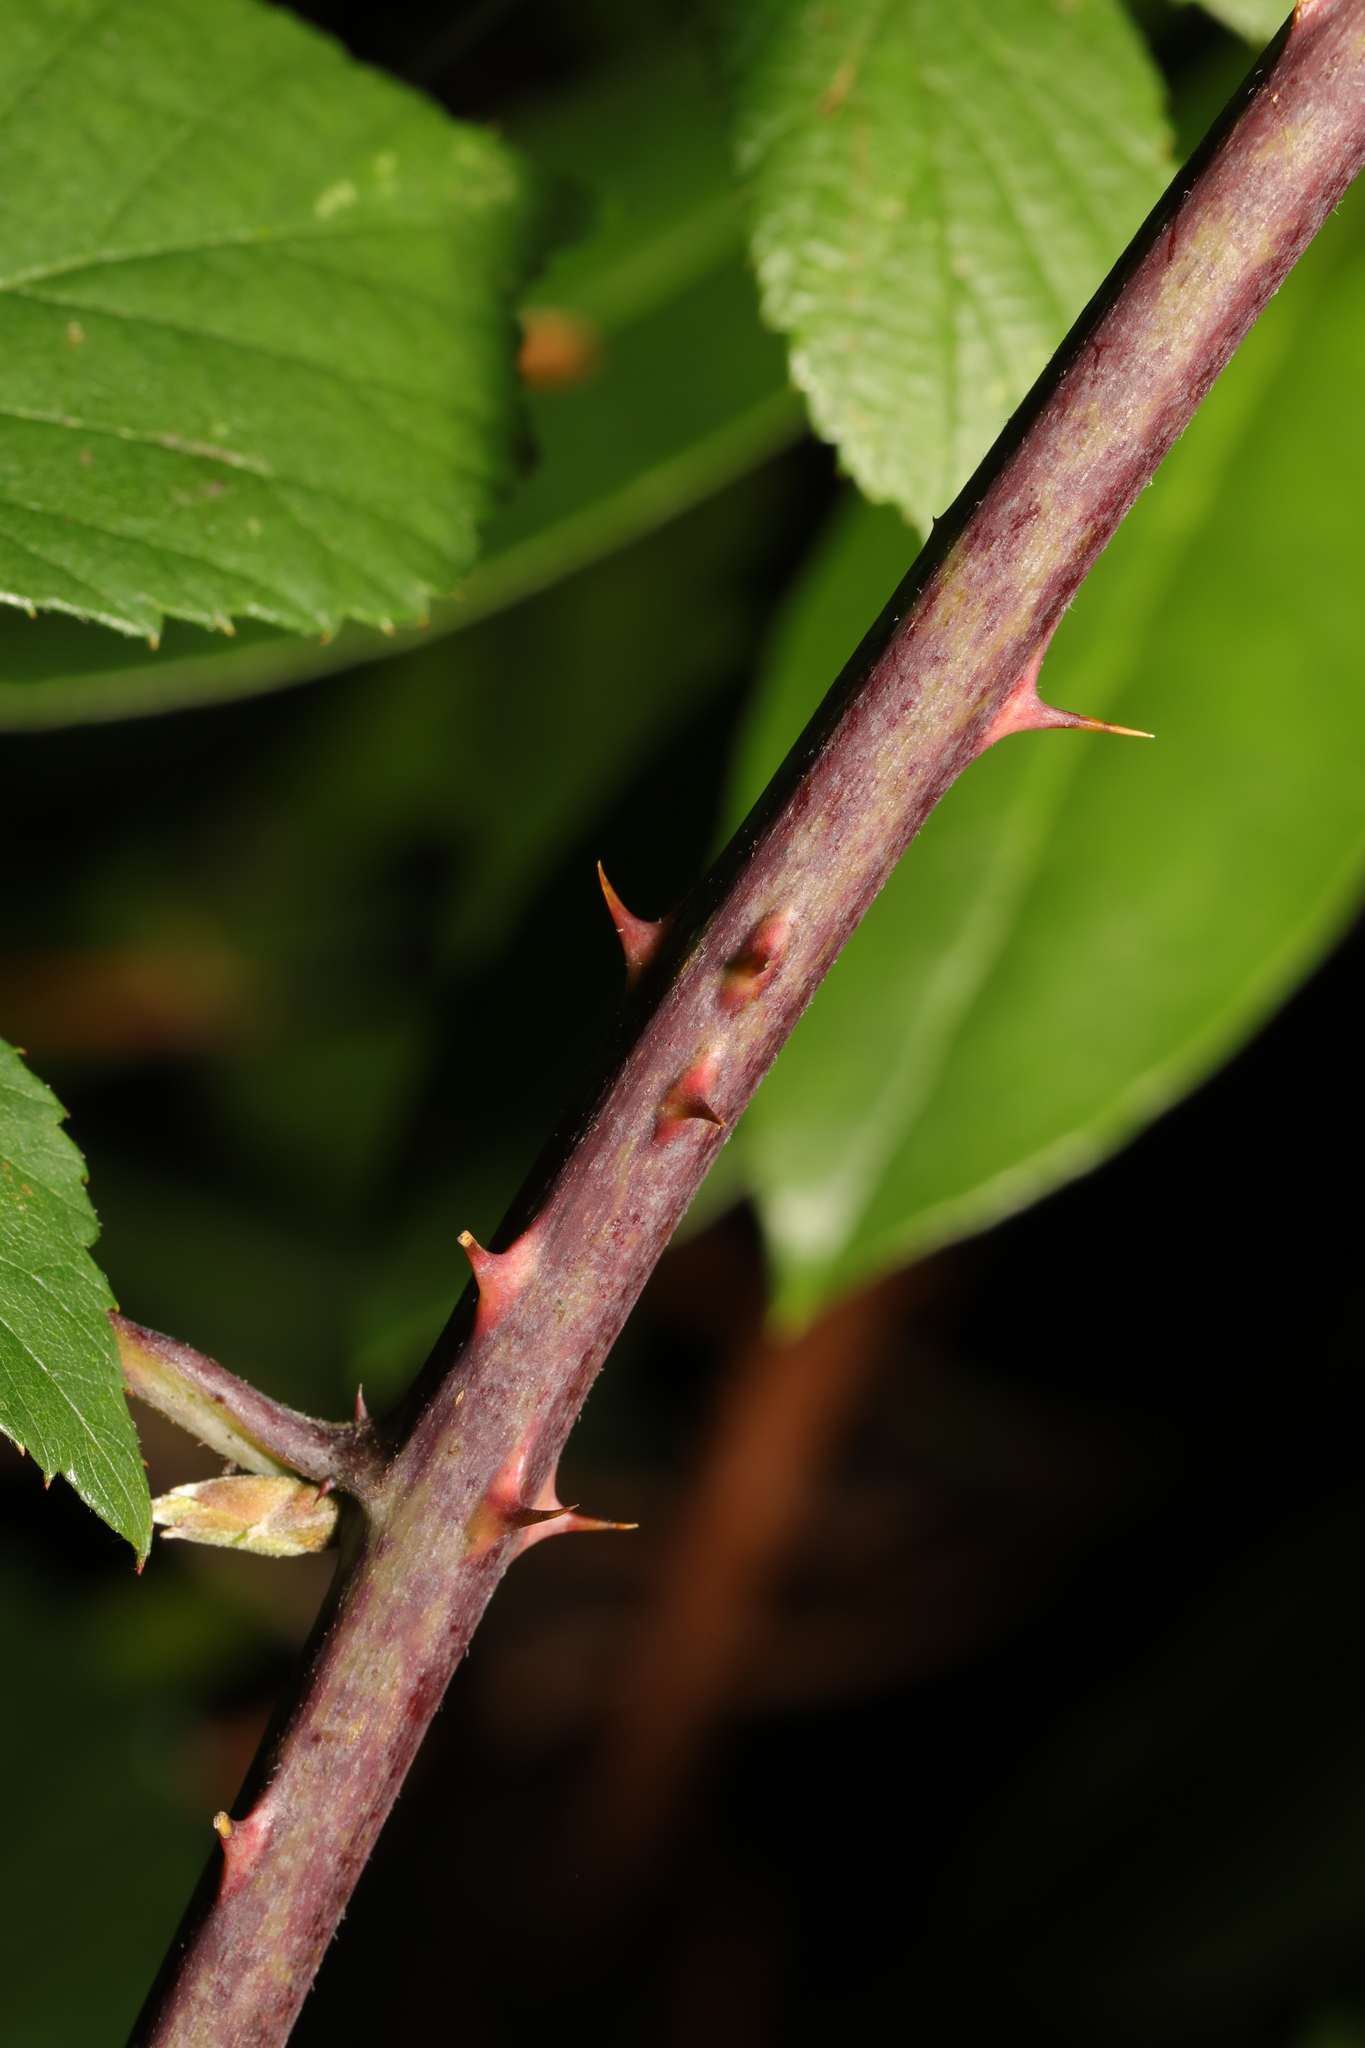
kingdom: Plantae
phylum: Tracheophyta
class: Magnoliopsida
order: Rosales
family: Rosaceae
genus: Rubus
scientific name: Rubus cissburiensis
